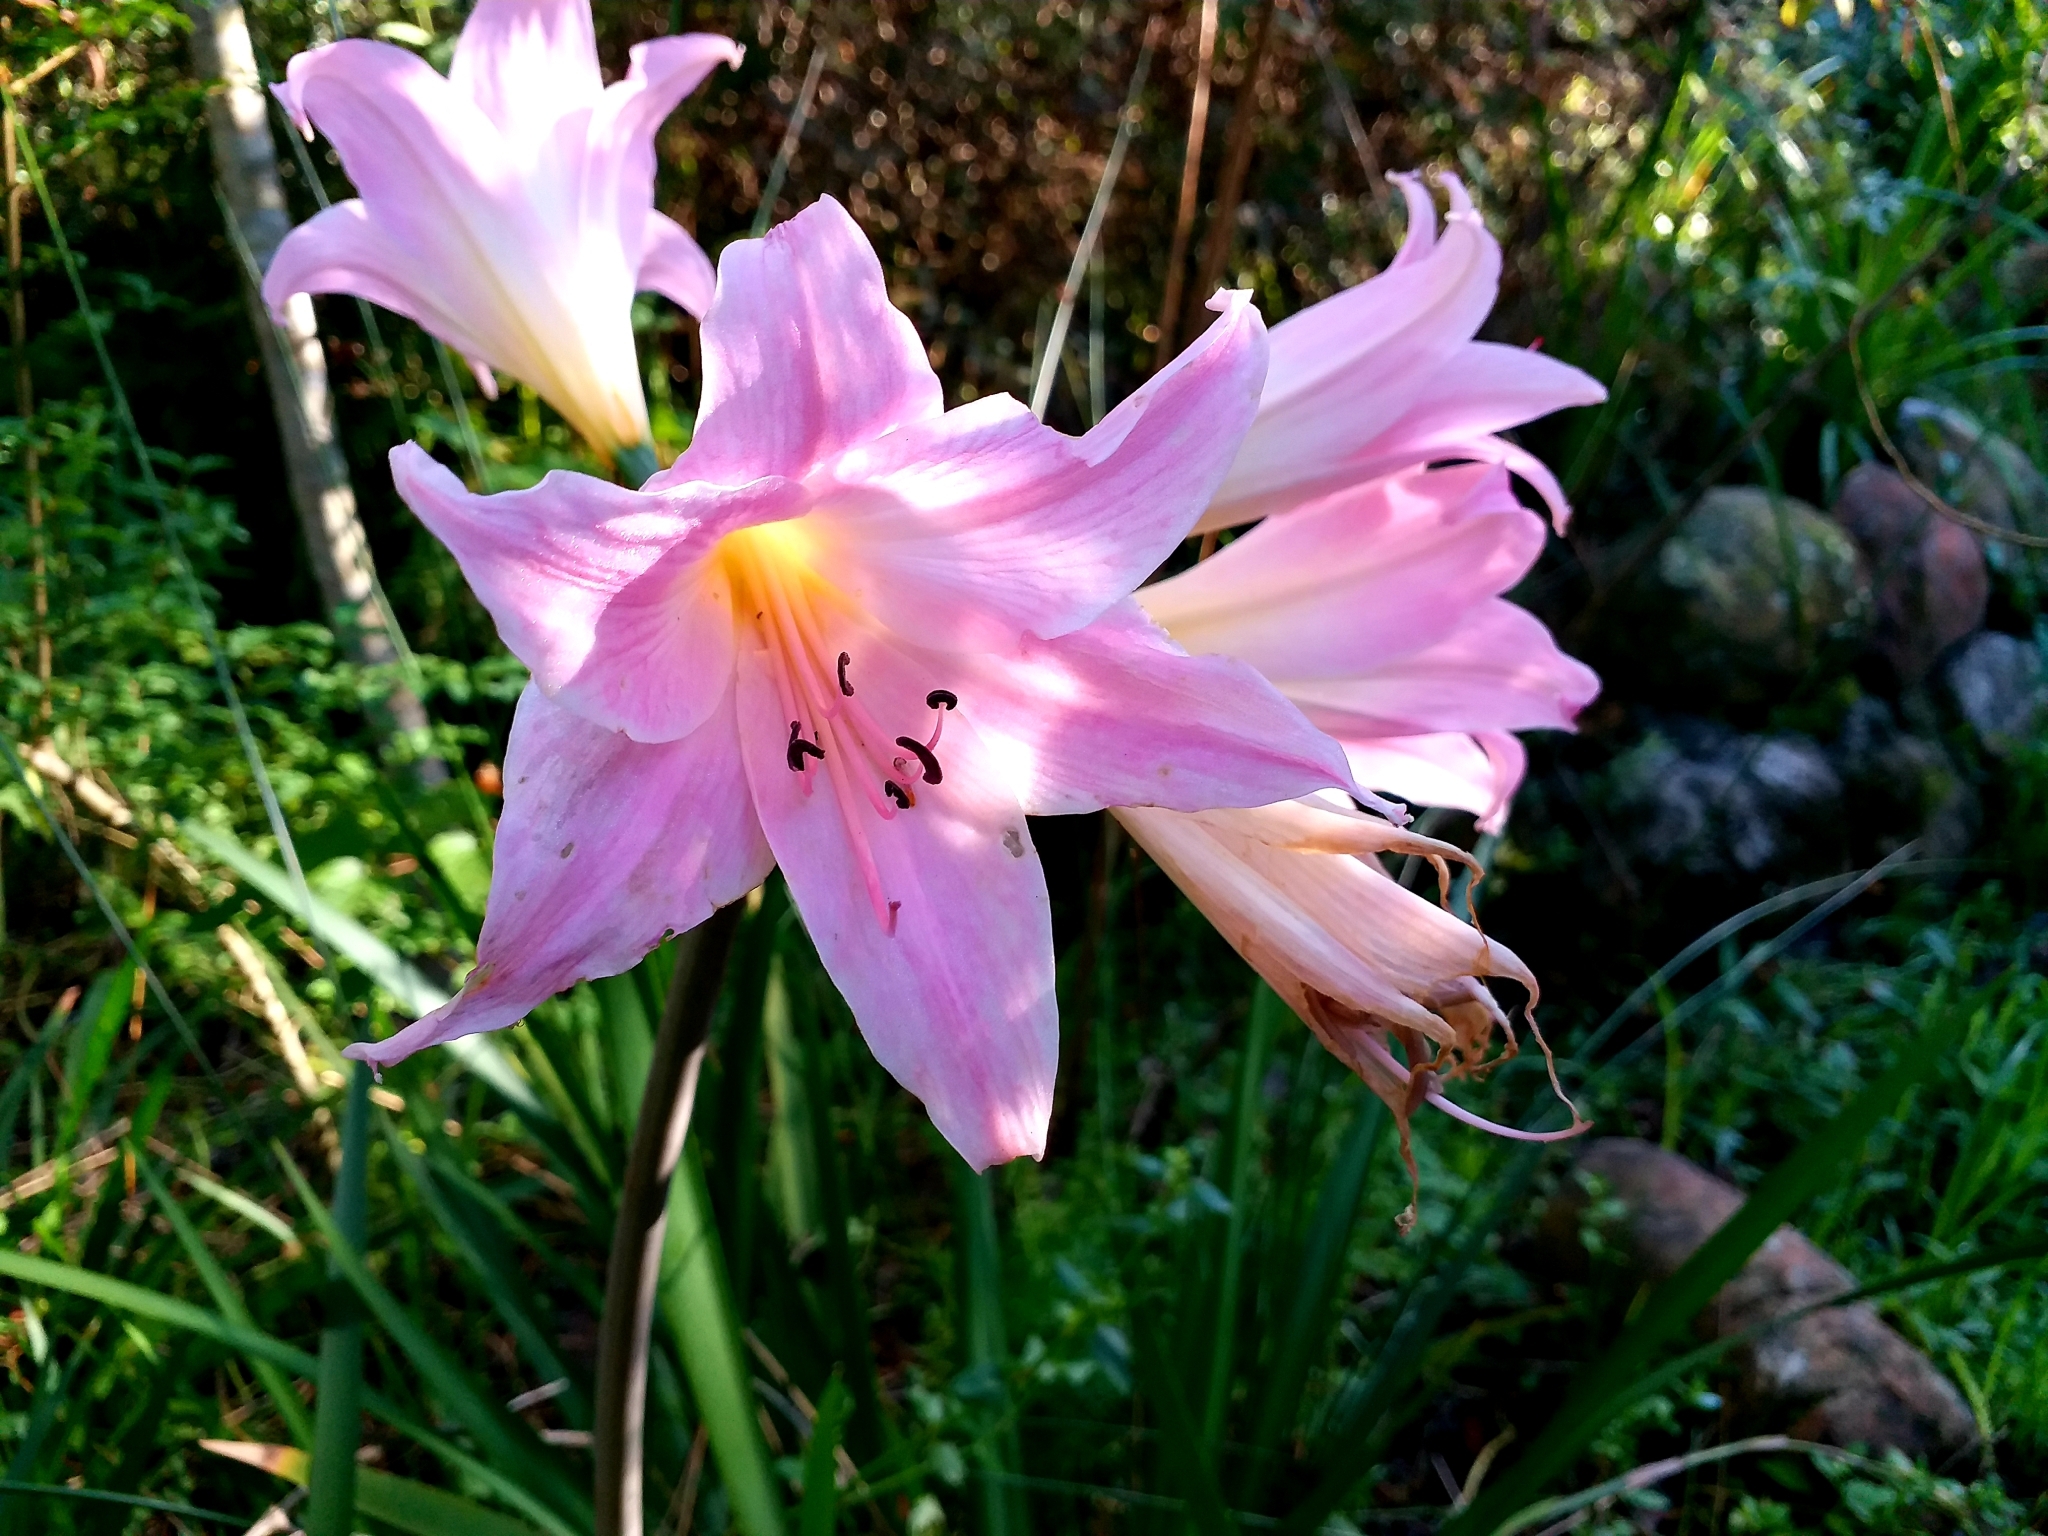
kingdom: Plantae
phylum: Tracheophyta
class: Liliopsida
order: Asparagales
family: Amaryllidaceae
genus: Amaryllis
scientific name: Amaryllis belladonna
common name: Jersey lily
